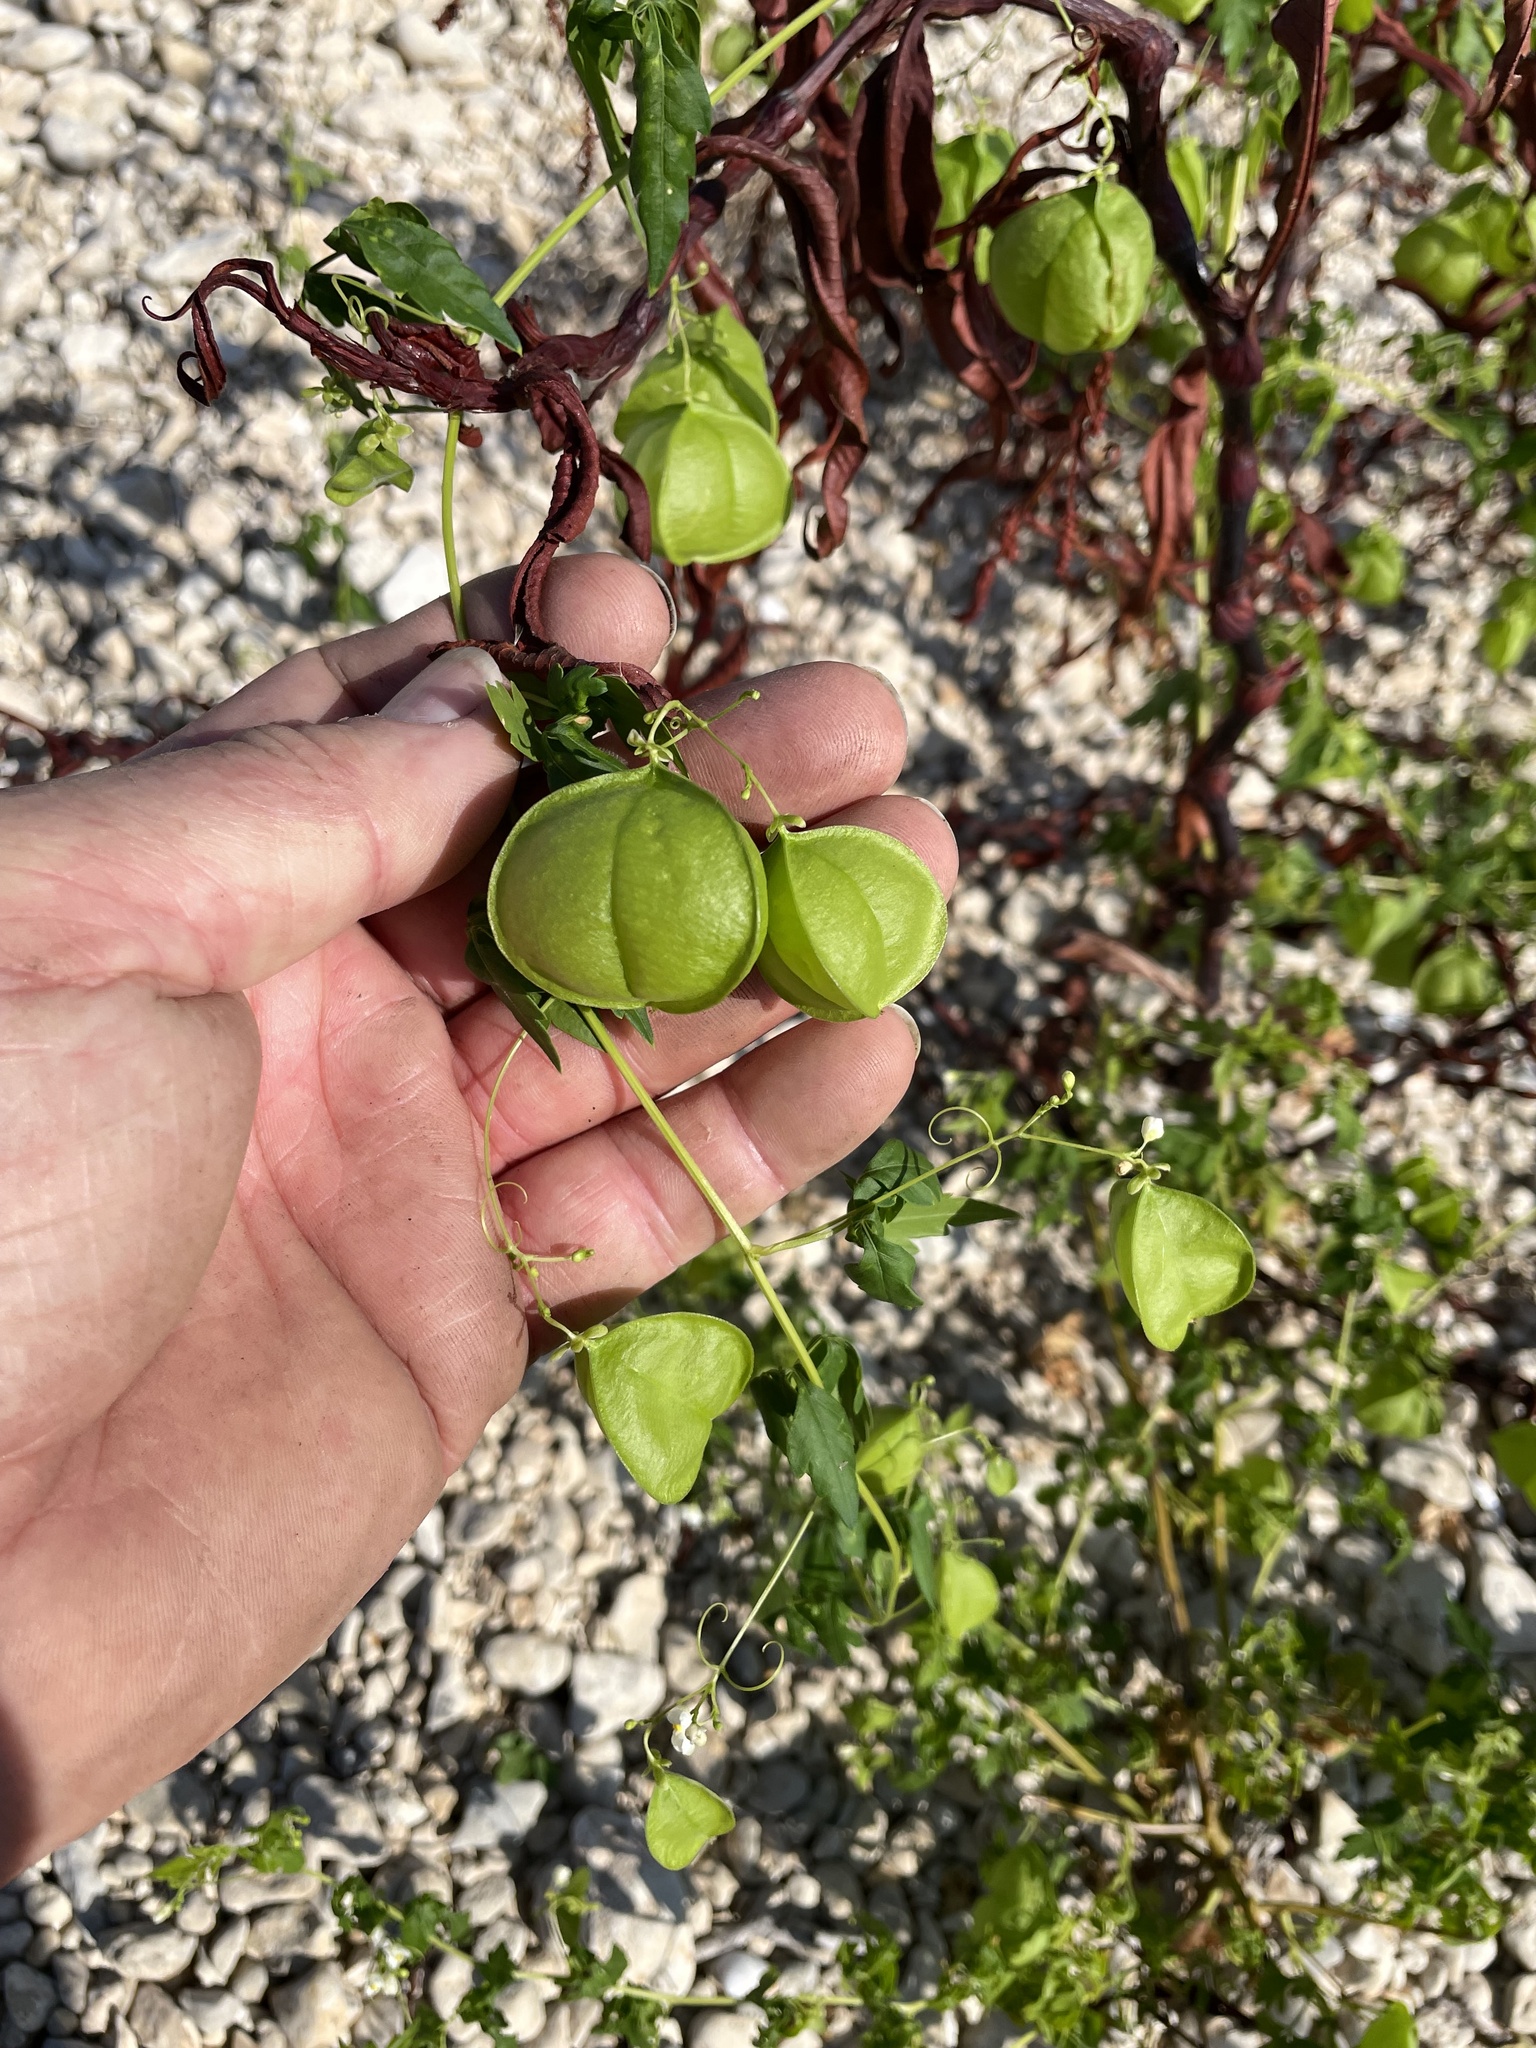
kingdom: Plantae
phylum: Tracheophyta
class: Magnoliopsida
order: Sapindales
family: Sapindaceae
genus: Cardiospermum
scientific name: Cardiospermum halicacabum
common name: Balloon vine
